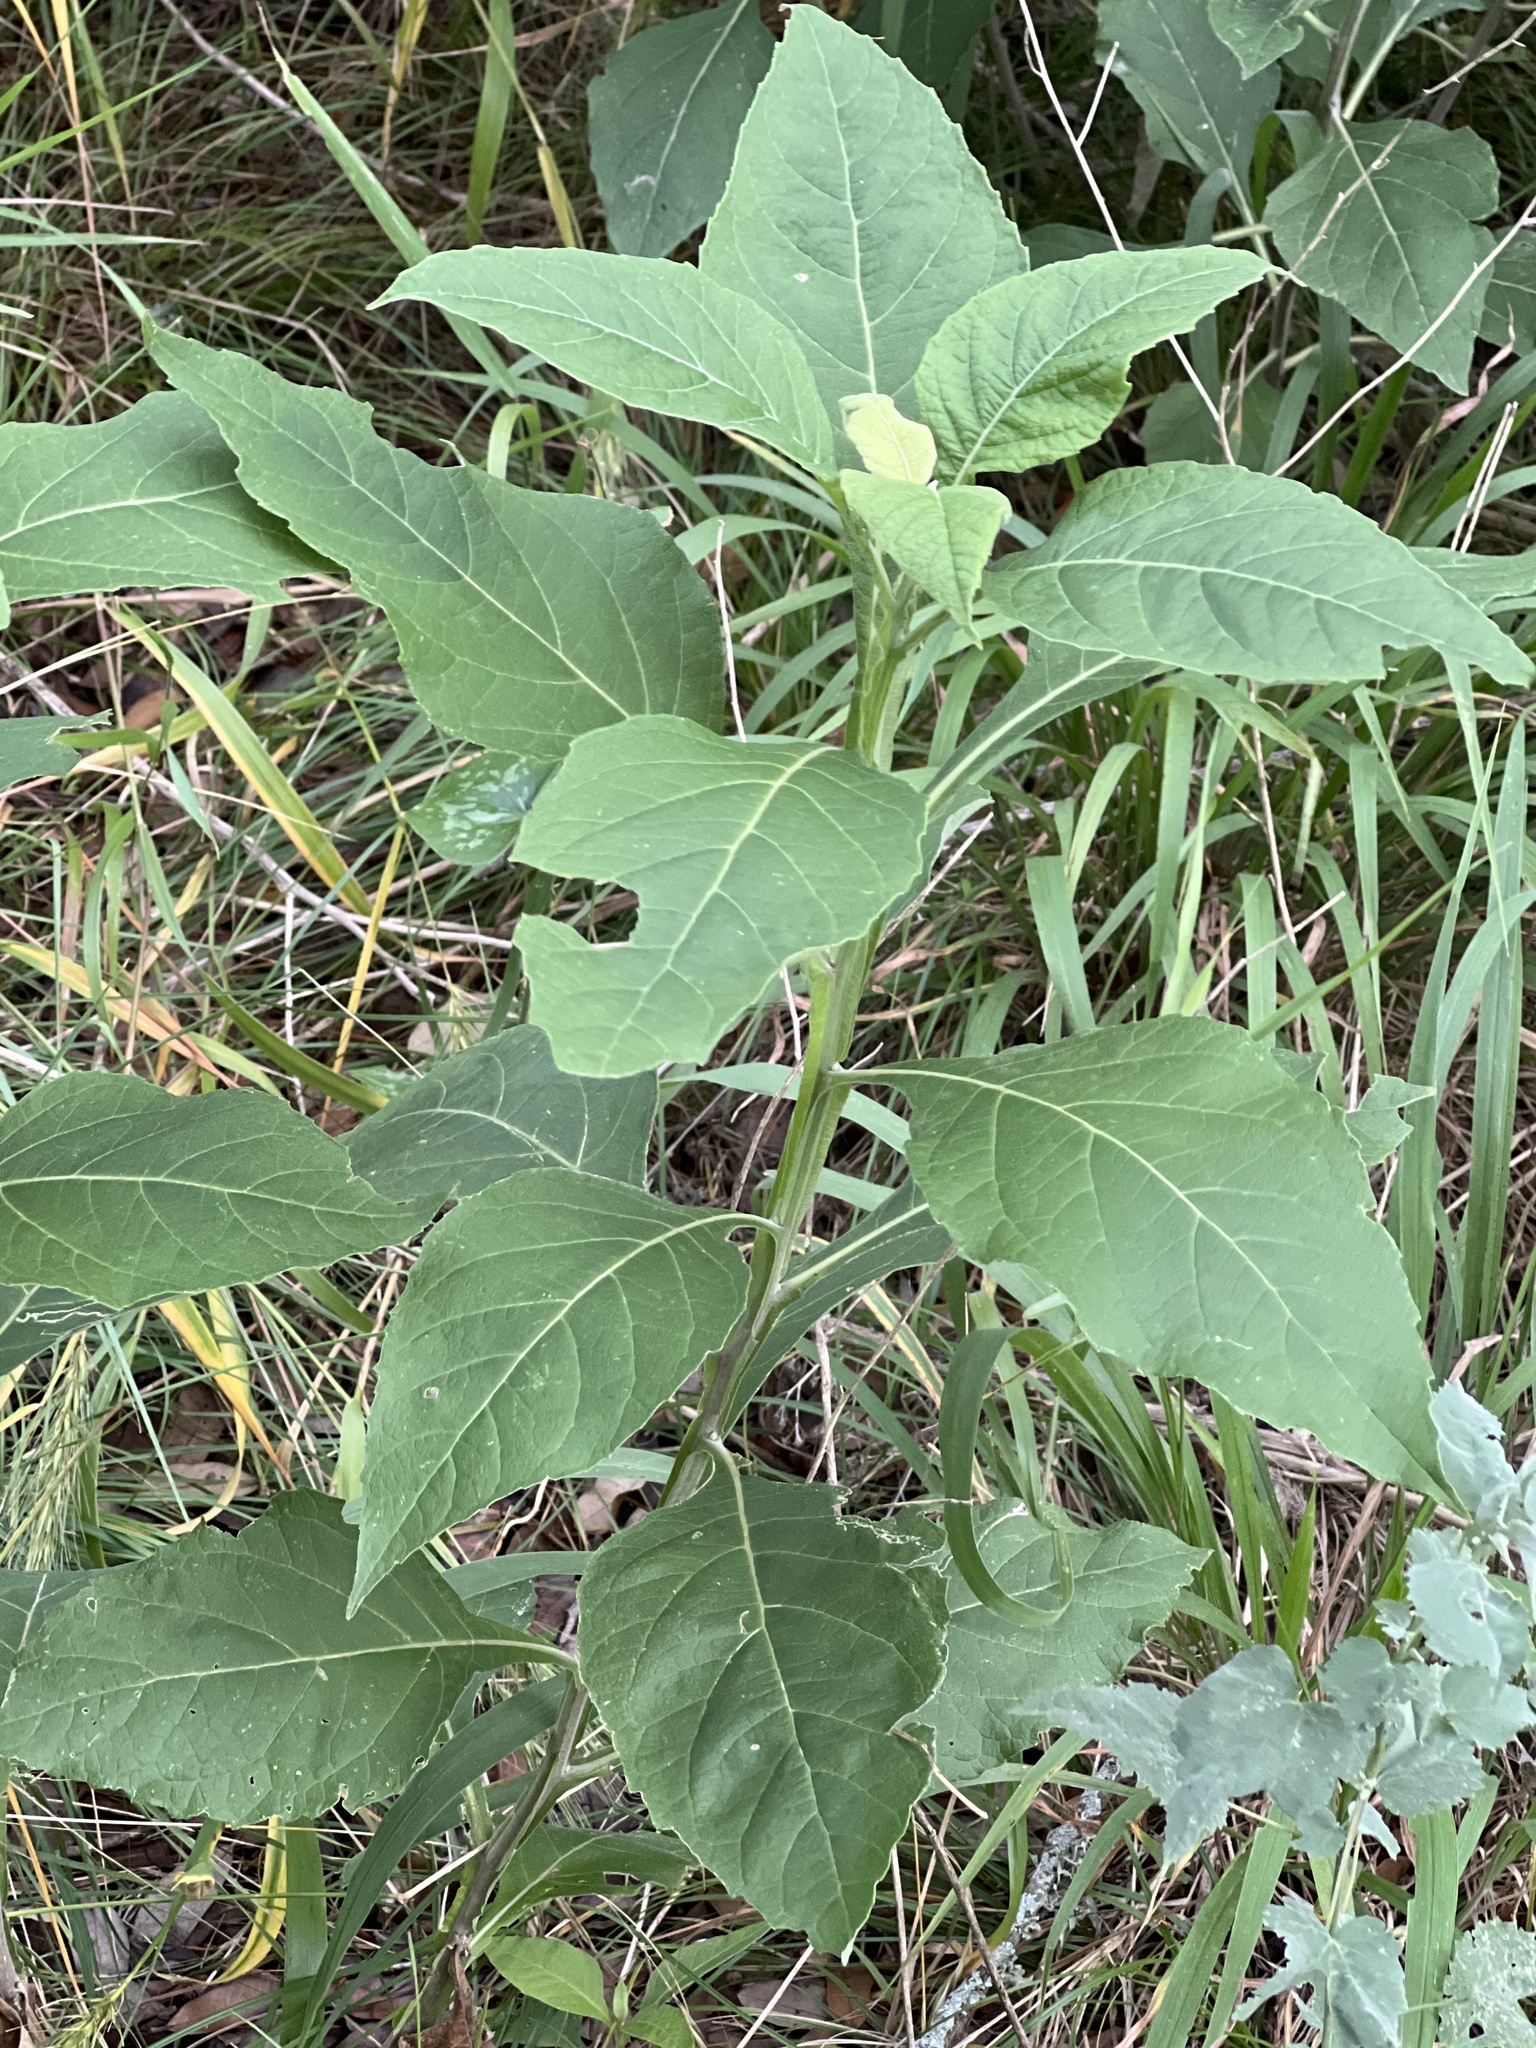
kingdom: Plantae
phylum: Tracheophyta
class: Magnoliopsida
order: Asterales
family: Asteraceae
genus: Verbesina
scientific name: Verbesina virginica
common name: Frostweed
